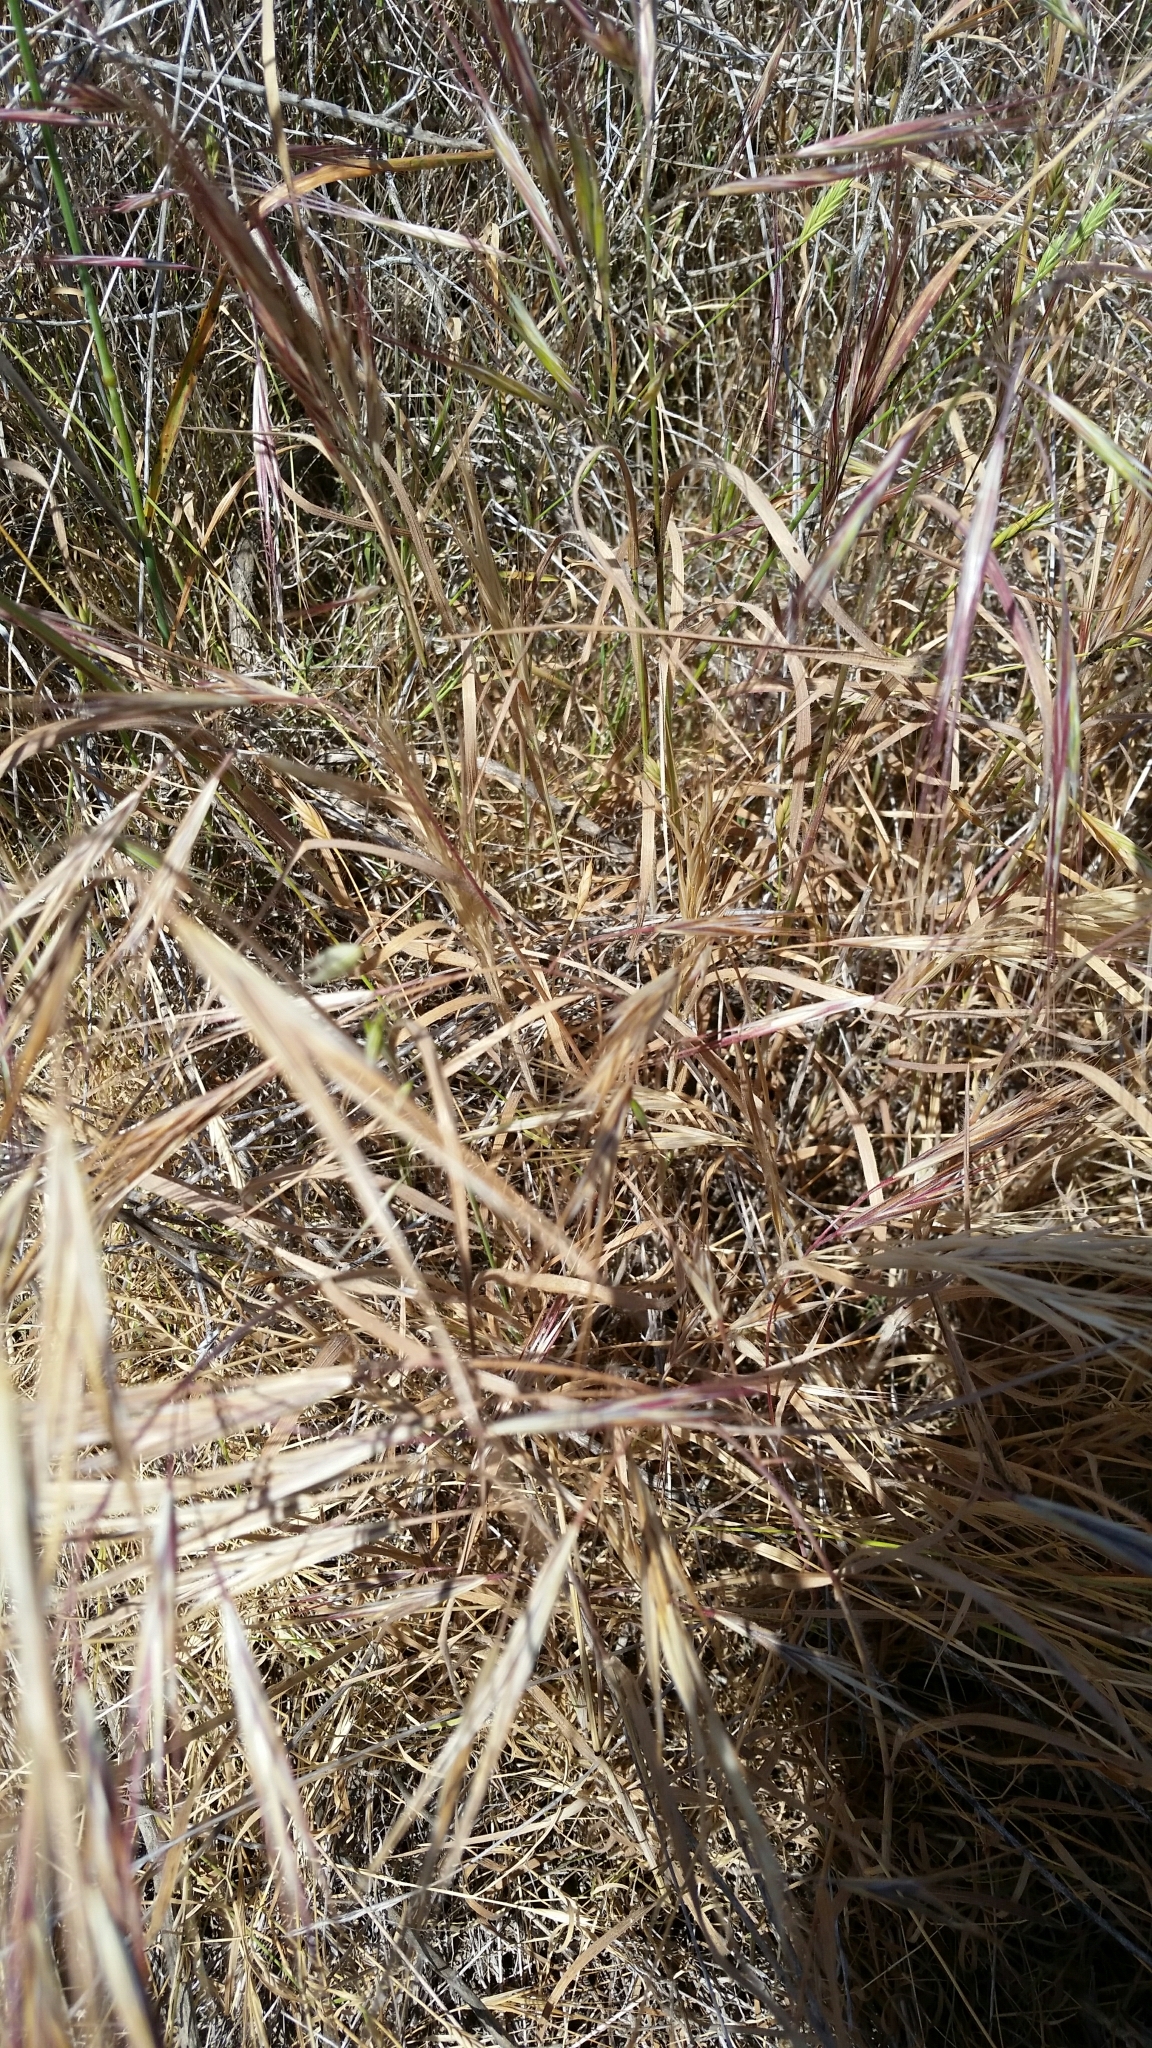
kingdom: Plantae
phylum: Tracheophyta
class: Liliopsida
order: Poales
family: Poaceae
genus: Bromus
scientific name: Bromus diandrus
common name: Ripgut brome
